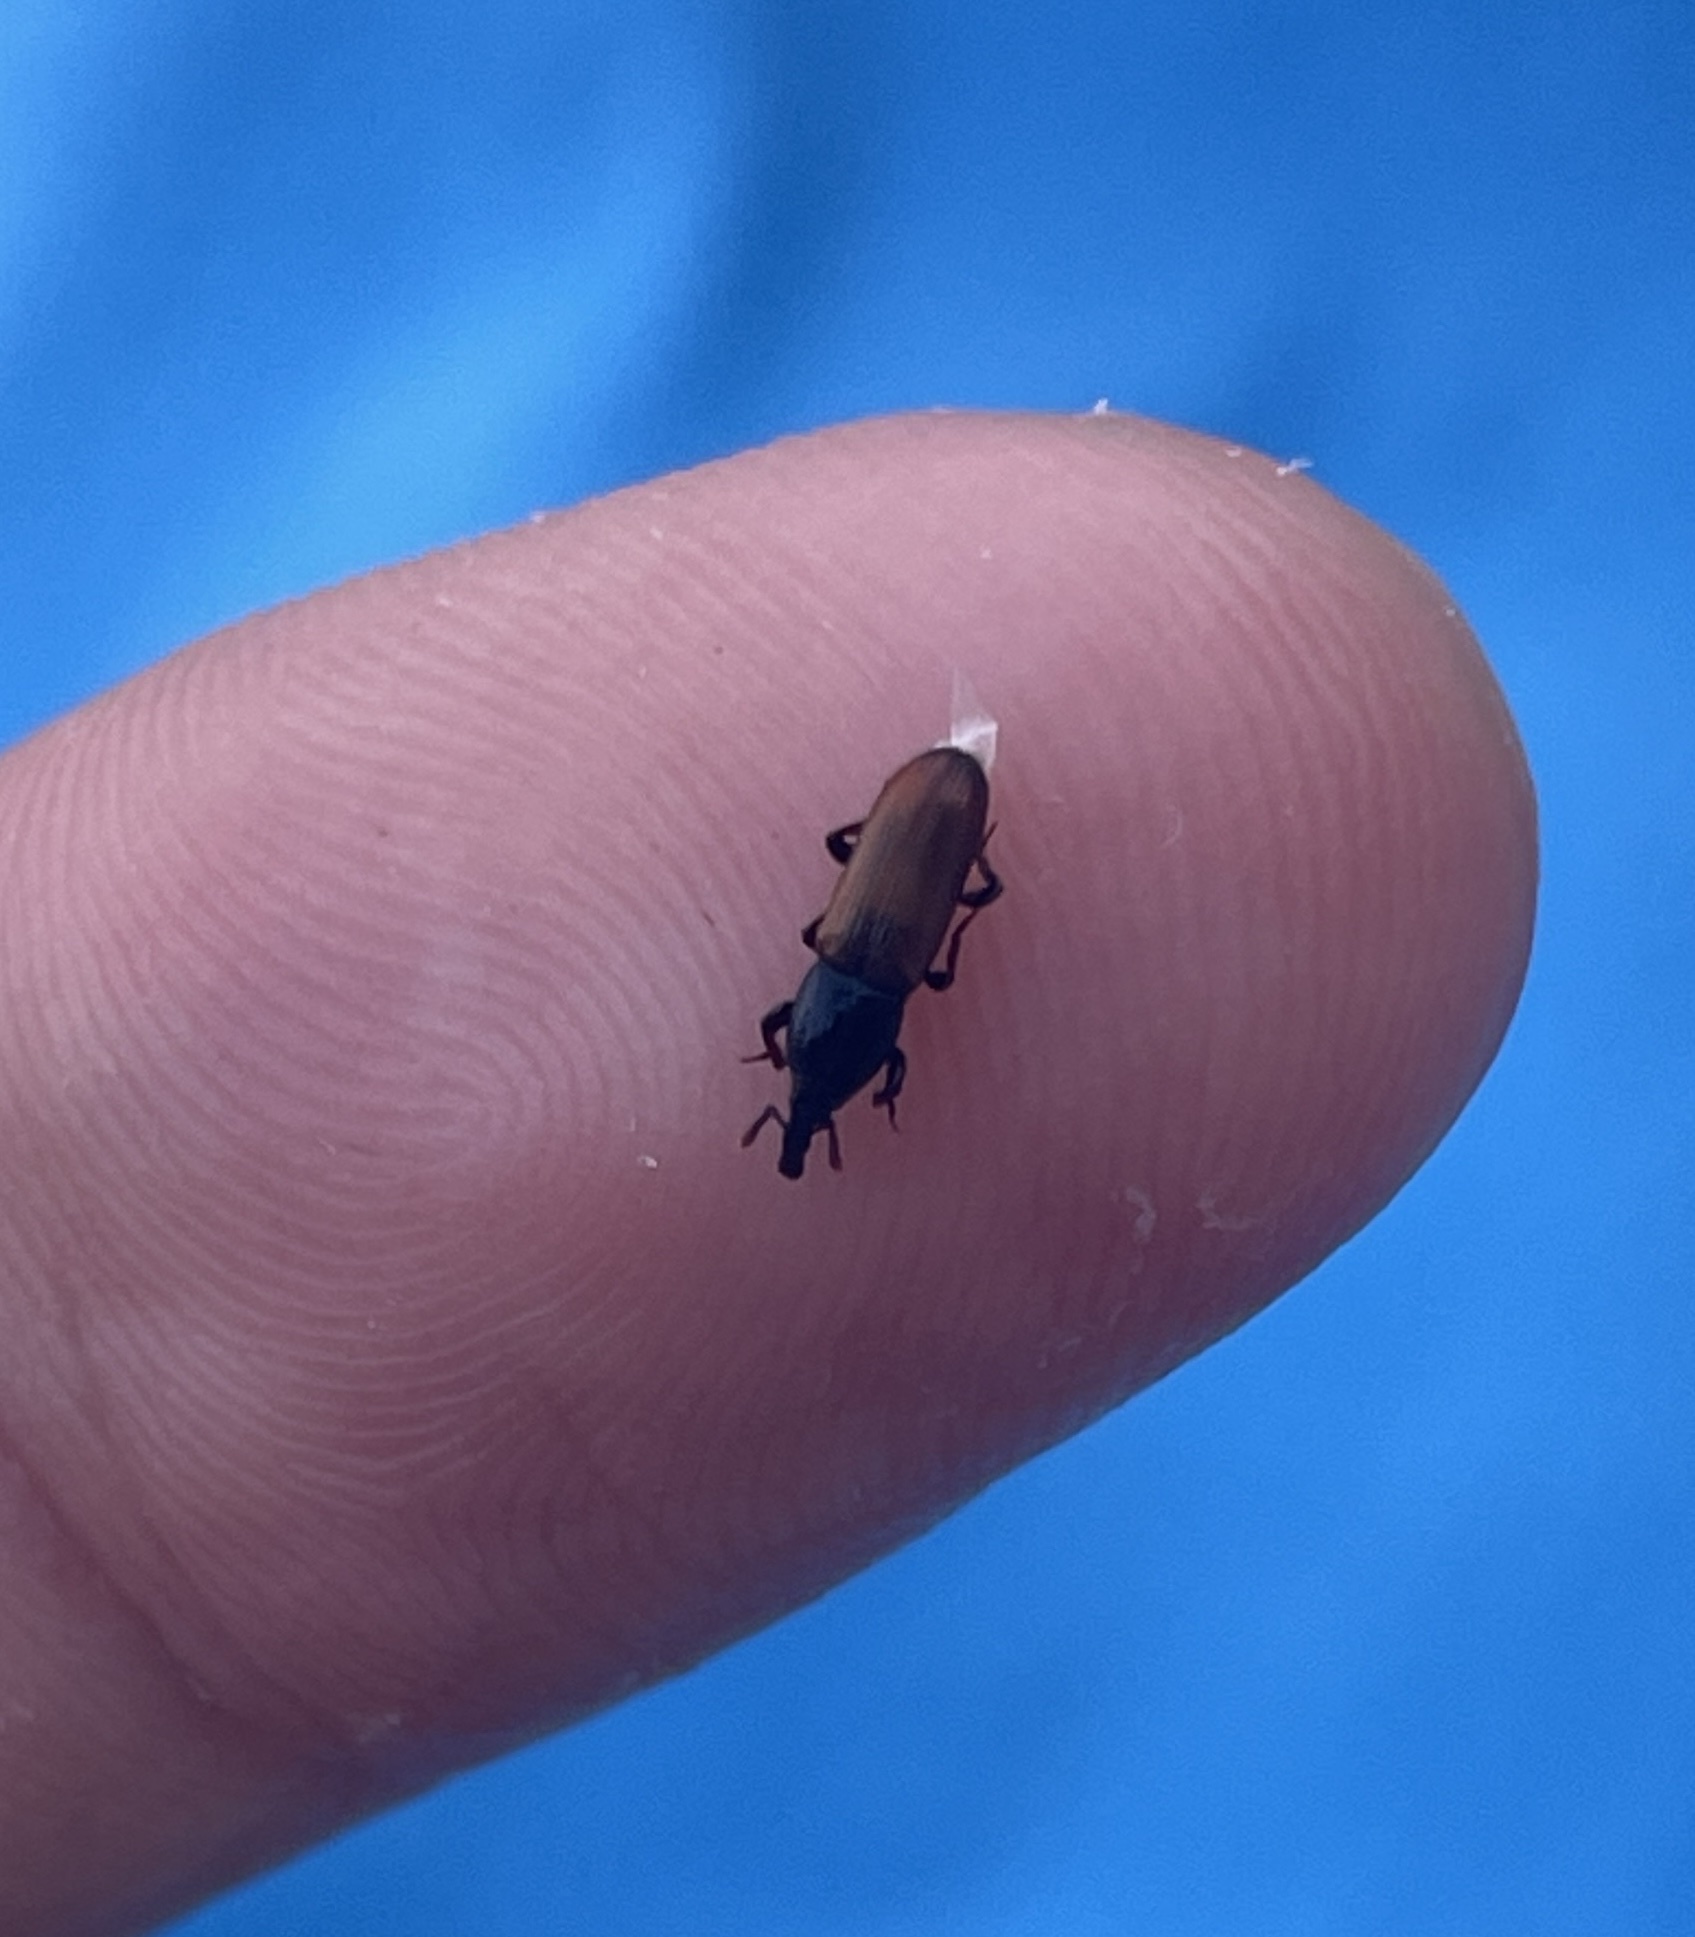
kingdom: Animalia
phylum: Arthropoda
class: Insecta
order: Coleoptera
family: Curculionidae
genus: Mesites
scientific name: Mesites pallidipennis
